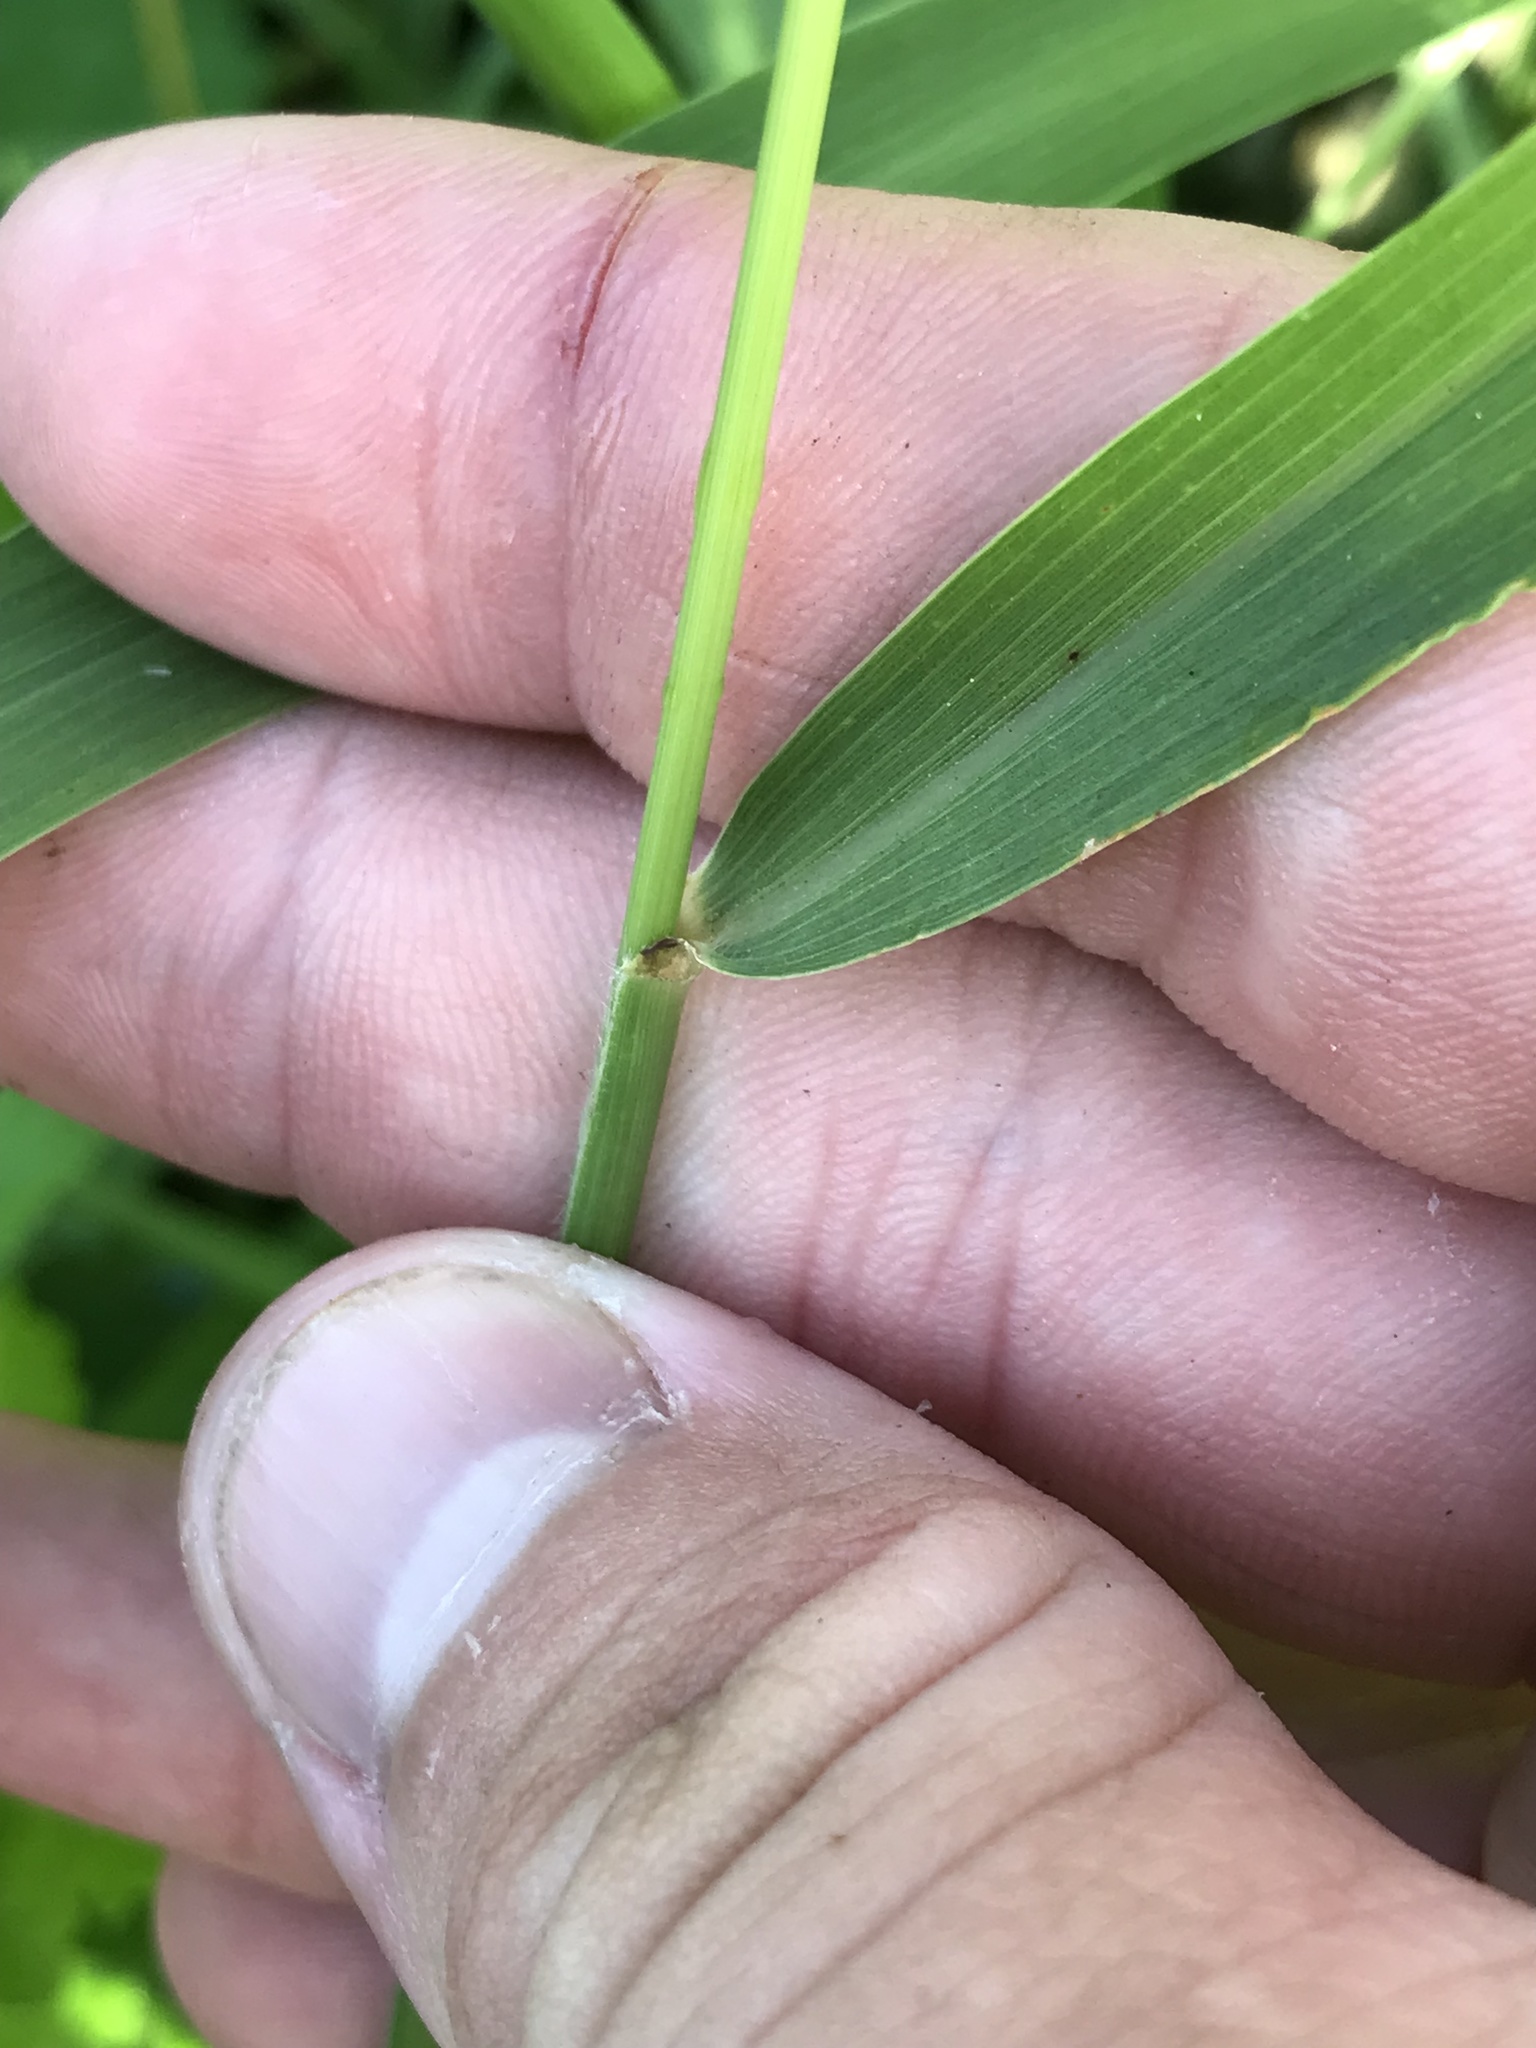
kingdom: Plantae
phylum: Tracheophyta
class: Liliopsida
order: Poales
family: Poaceae
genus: Setaria
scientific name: Setaria scheelei
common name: Southwestern bristle grass
